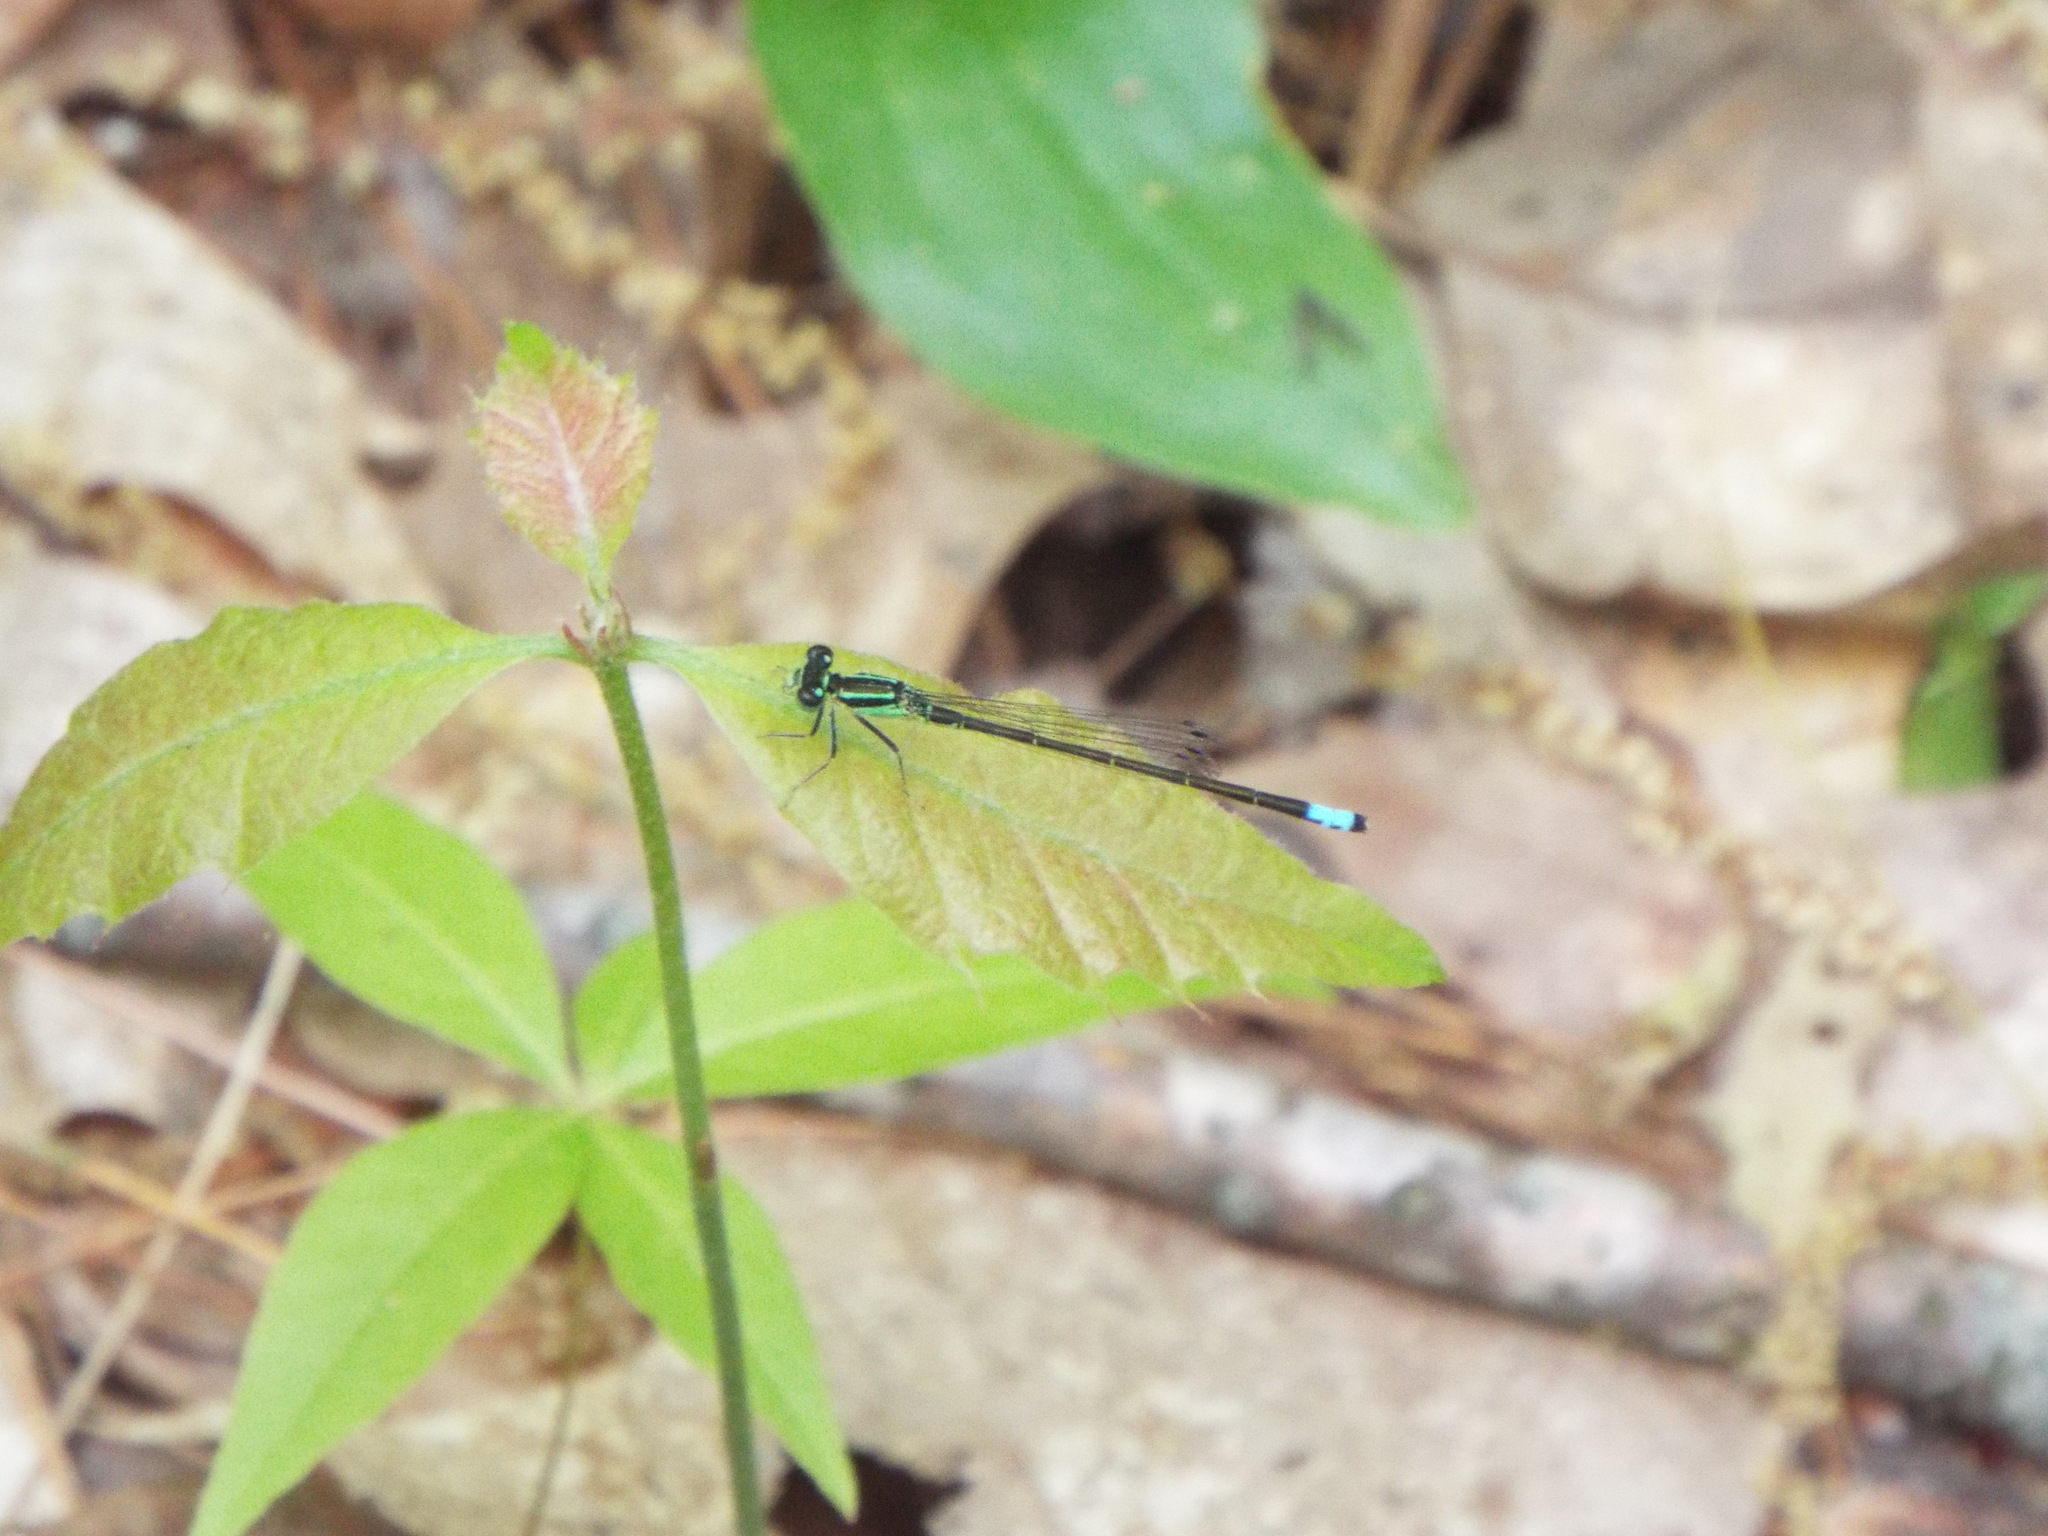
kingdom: Animalia
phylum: Arthropoda
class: Insecta
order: Odonata
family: Coenagrionidae
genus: Ischnura
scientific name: Ischnura verticalis
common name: Eastern forktail
